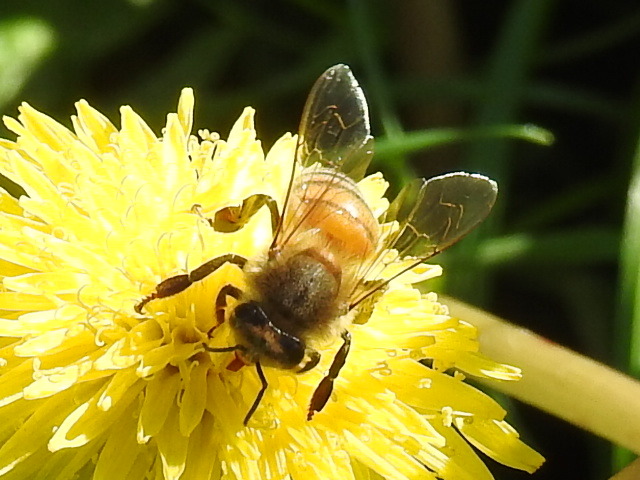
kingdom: Animalia
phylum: Arthropoda
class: Insecta
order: Hymenoptera
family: Apidae
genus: Apis
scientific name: Apis mellifera
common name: Honey bee
